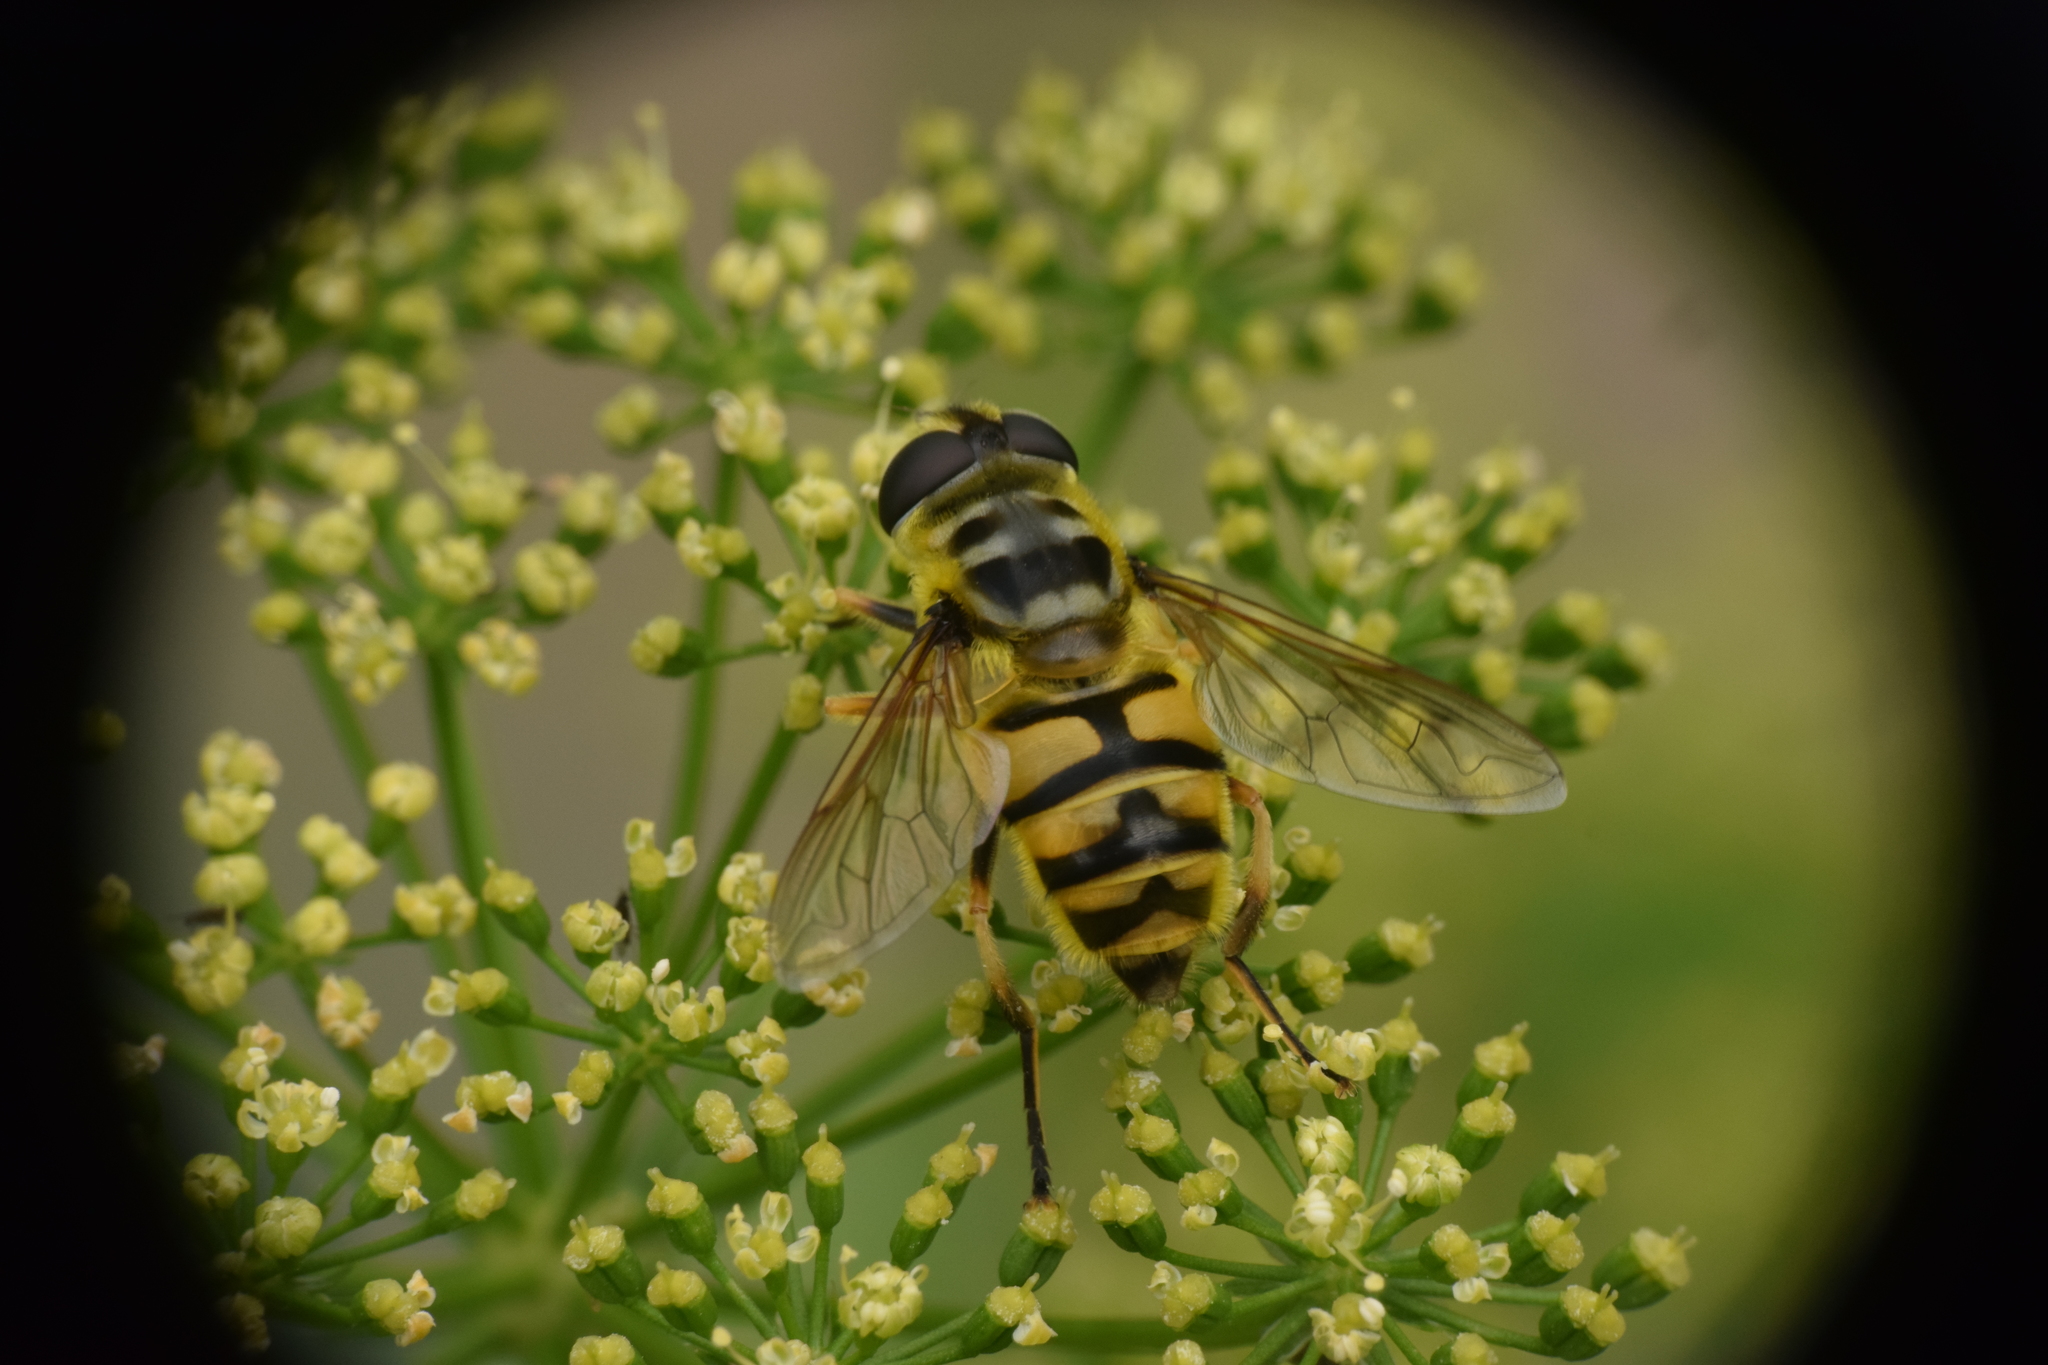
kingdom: Animalia
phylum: Arthropoda
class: Insecta
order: Diptera
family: Syrphidae
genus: Myathropa
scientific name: Myathropa florea
